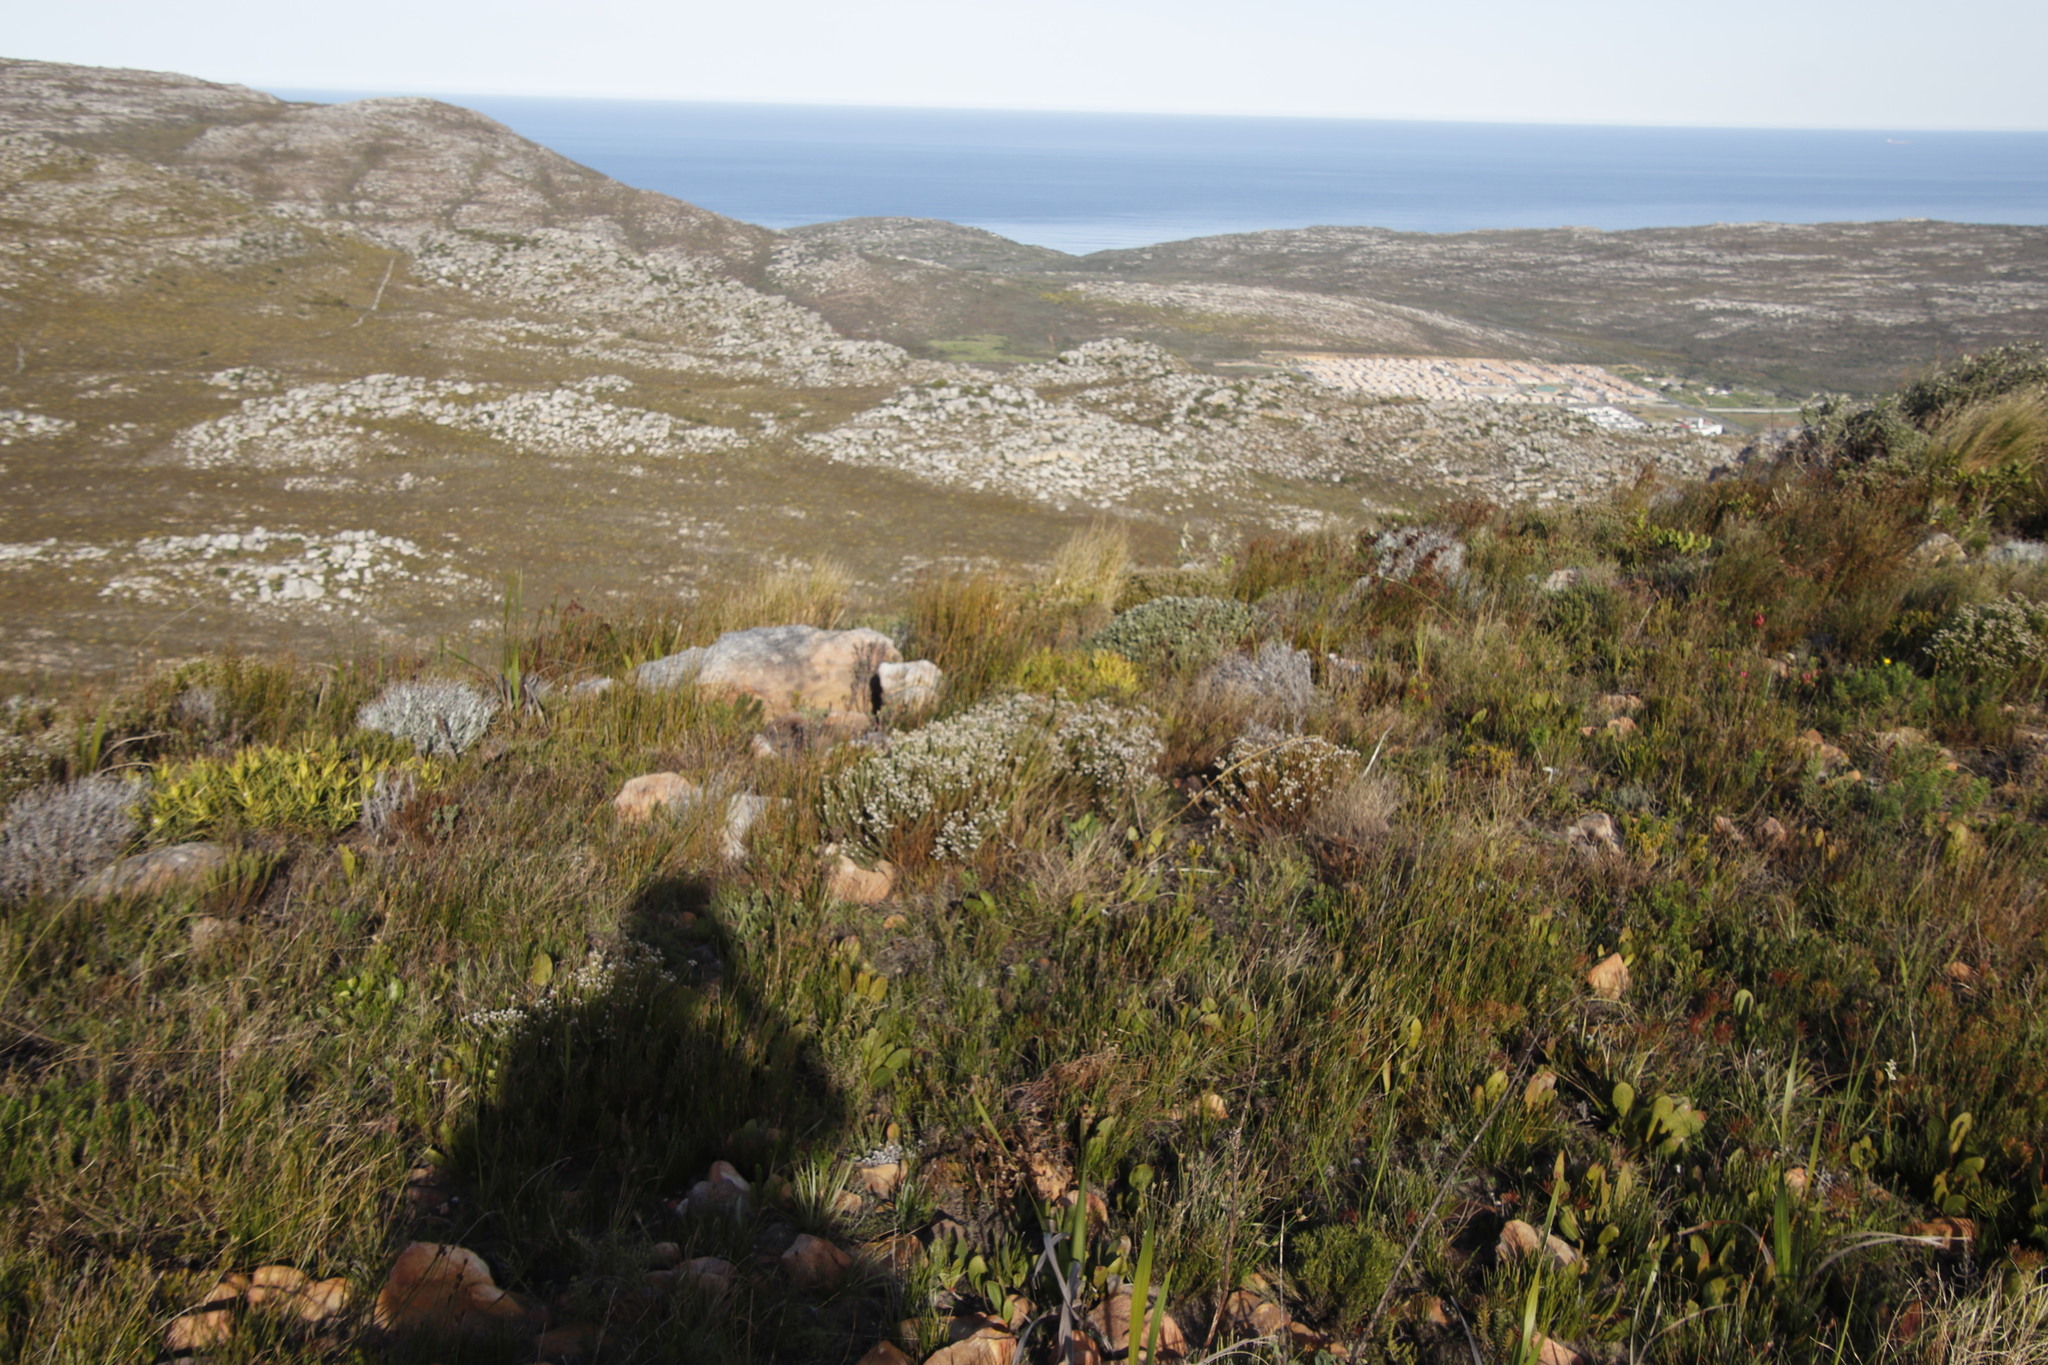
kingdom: Plantae
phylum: Tracheophyta
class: Magnoliopsida
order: Bruniales
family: Bruniaceae
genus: Staavia
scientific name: Staavia radiata
